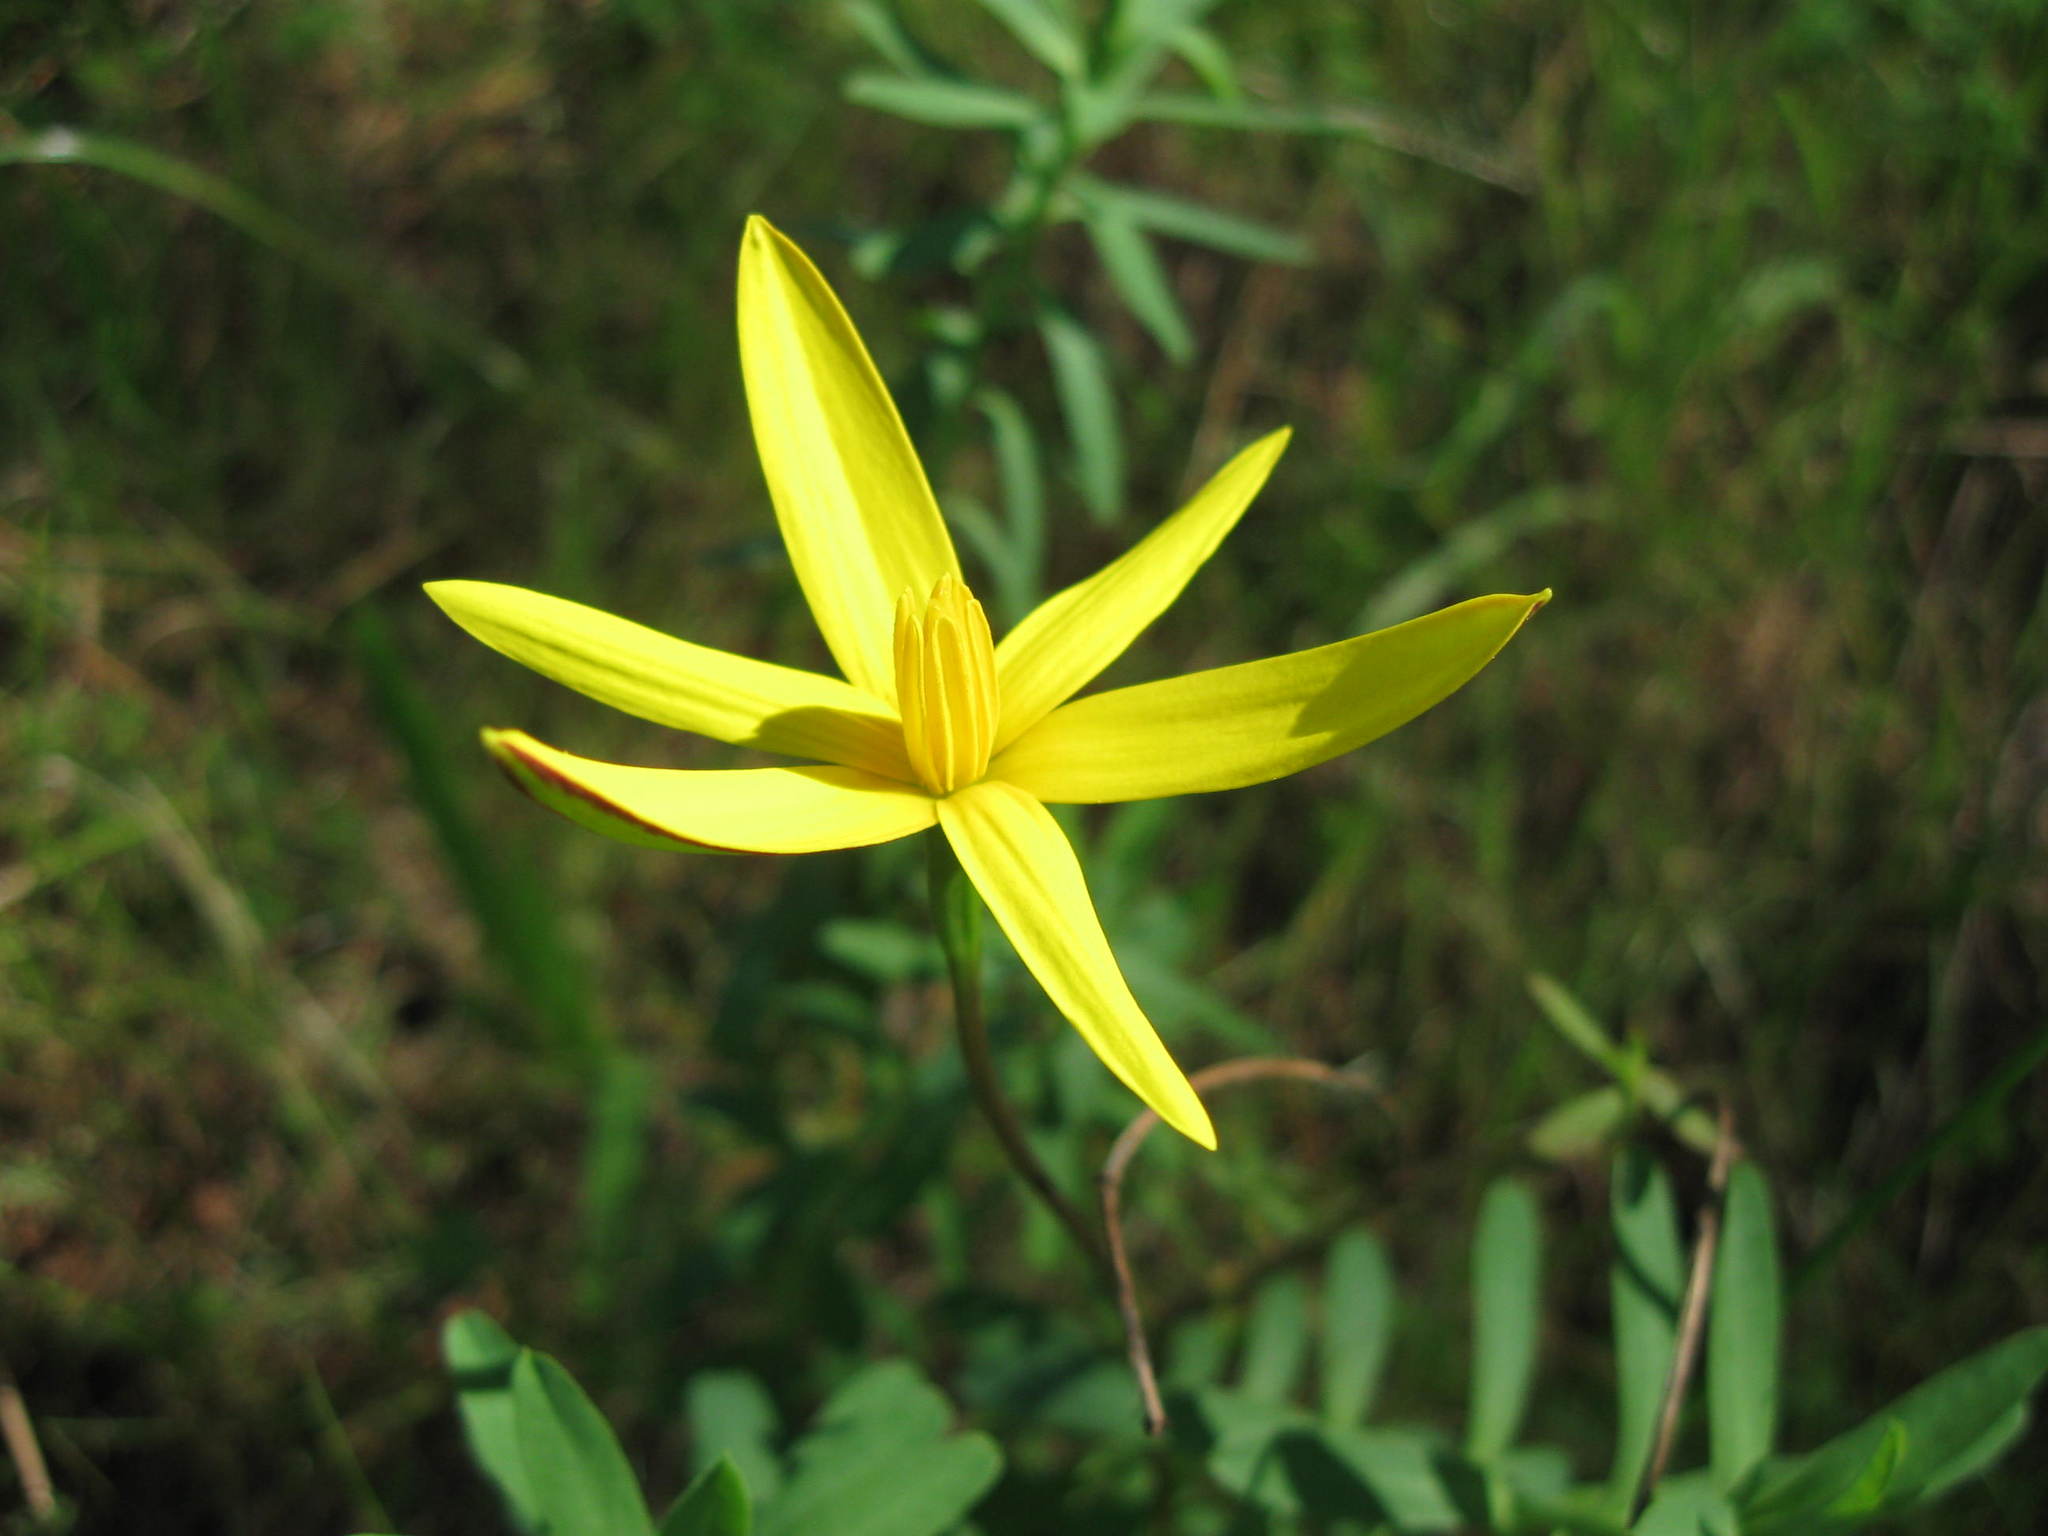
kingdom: Plantae
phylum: Tracheophyta
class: Liliopsida
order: Asparagales
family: Hypoxidaceae
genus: Pauridia
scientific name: Pauridia capensis
